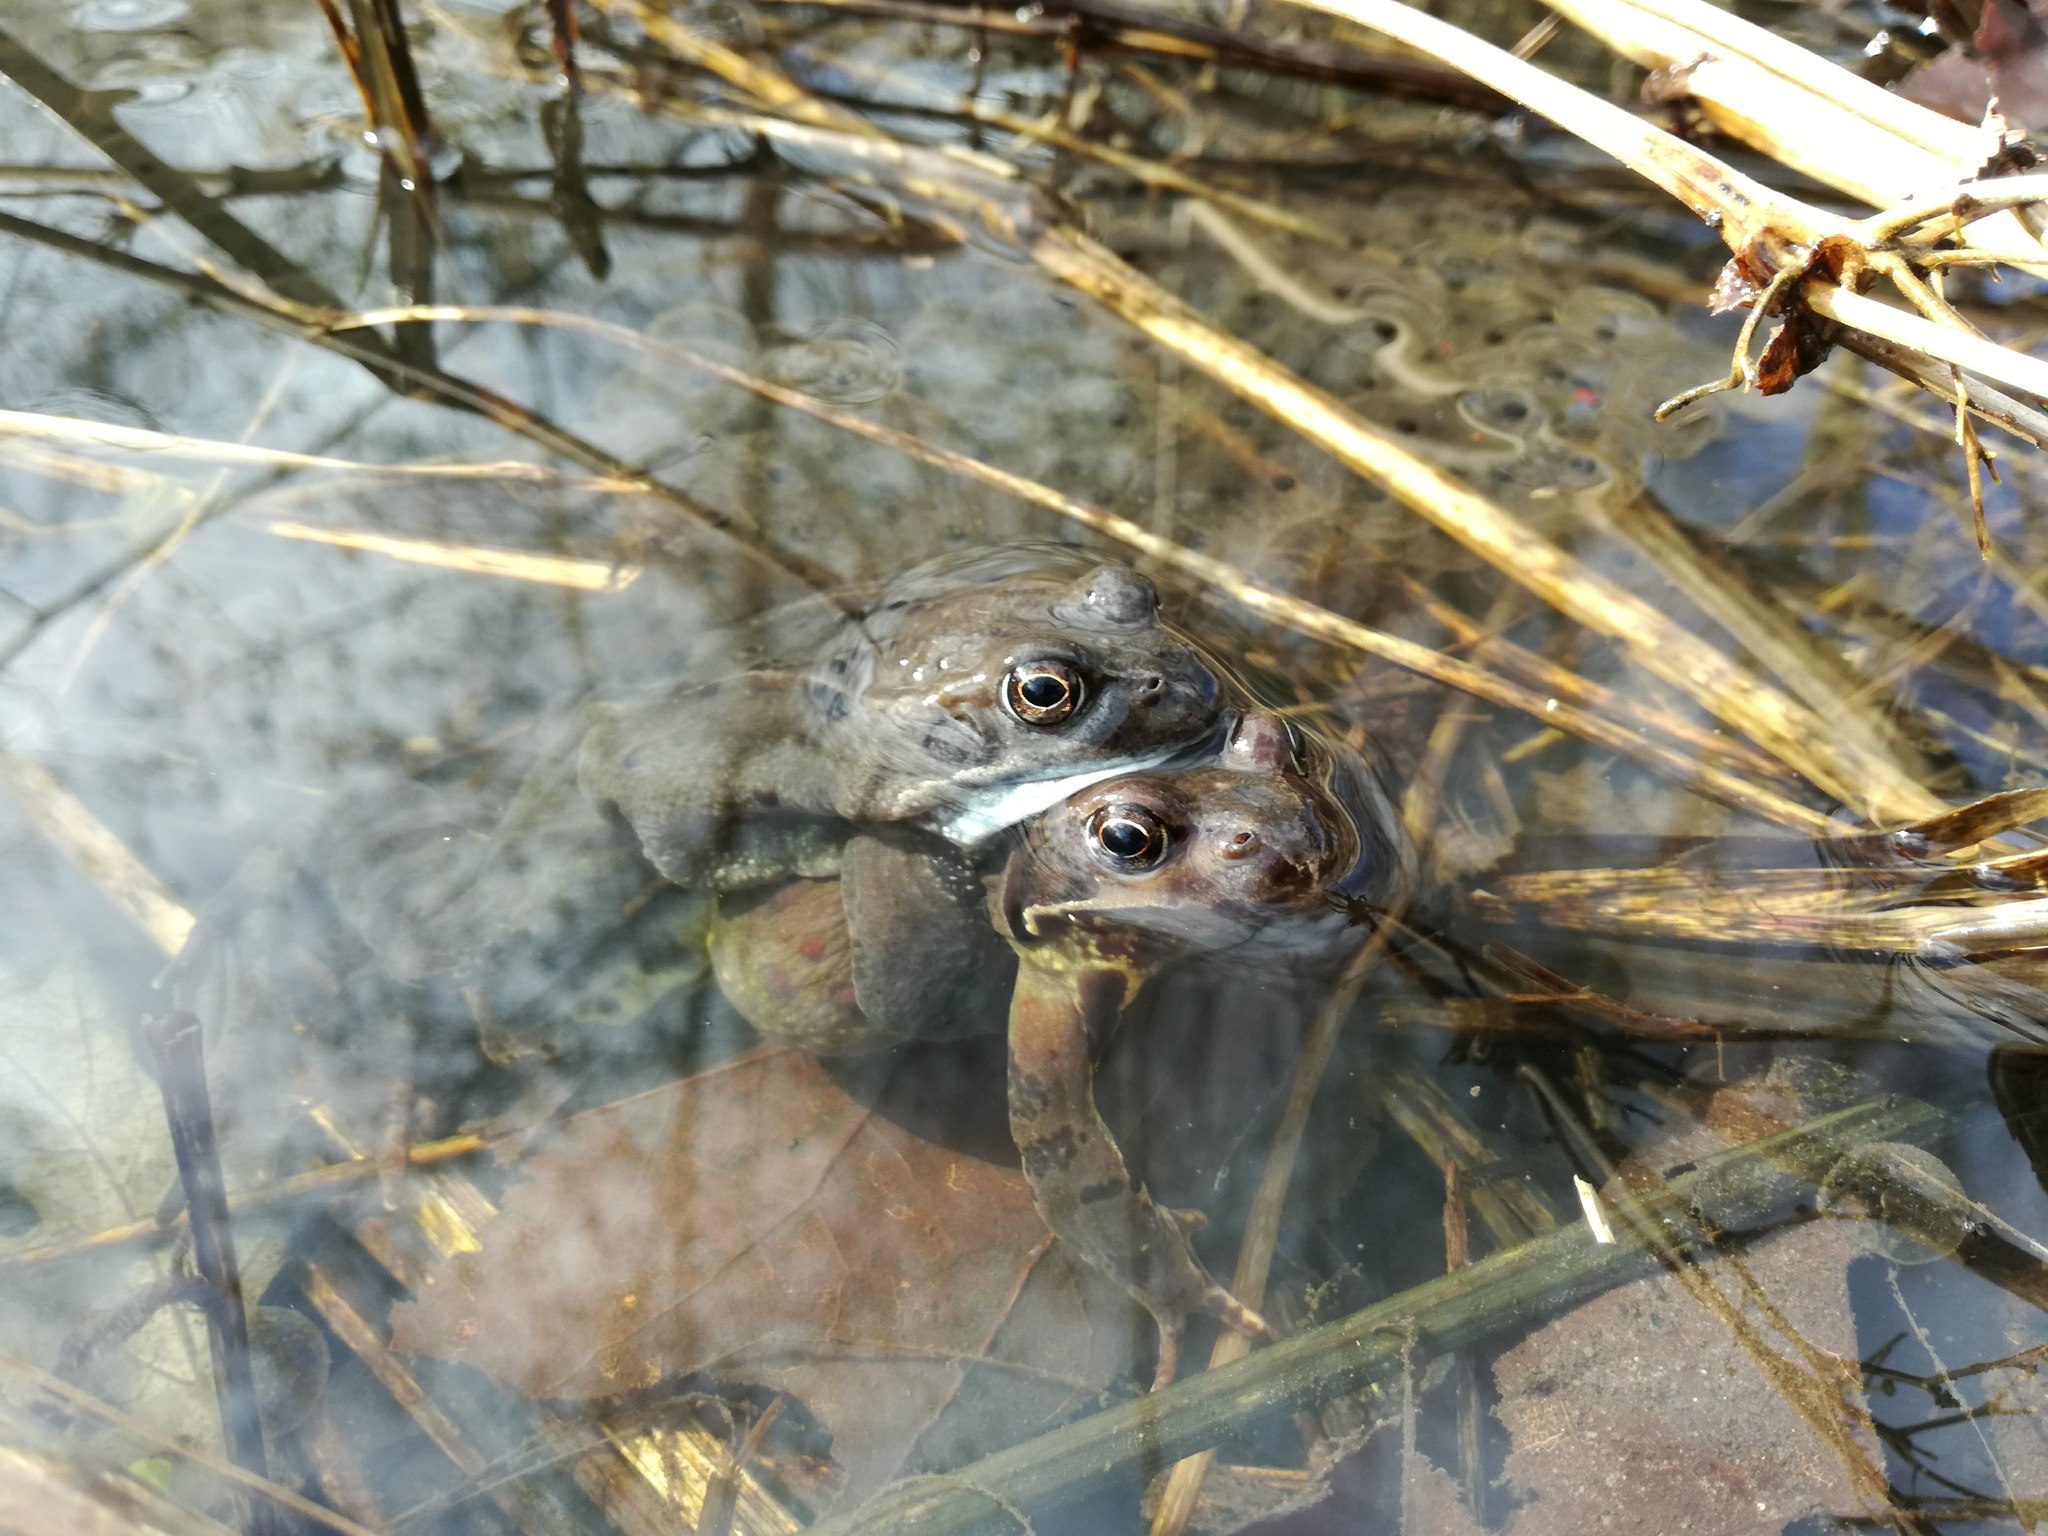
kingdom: Animalia
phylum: Chordata
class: Amphibia
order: Anura
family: Ranidae
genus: Rana
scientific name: Rana temporaria
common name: Common frog
